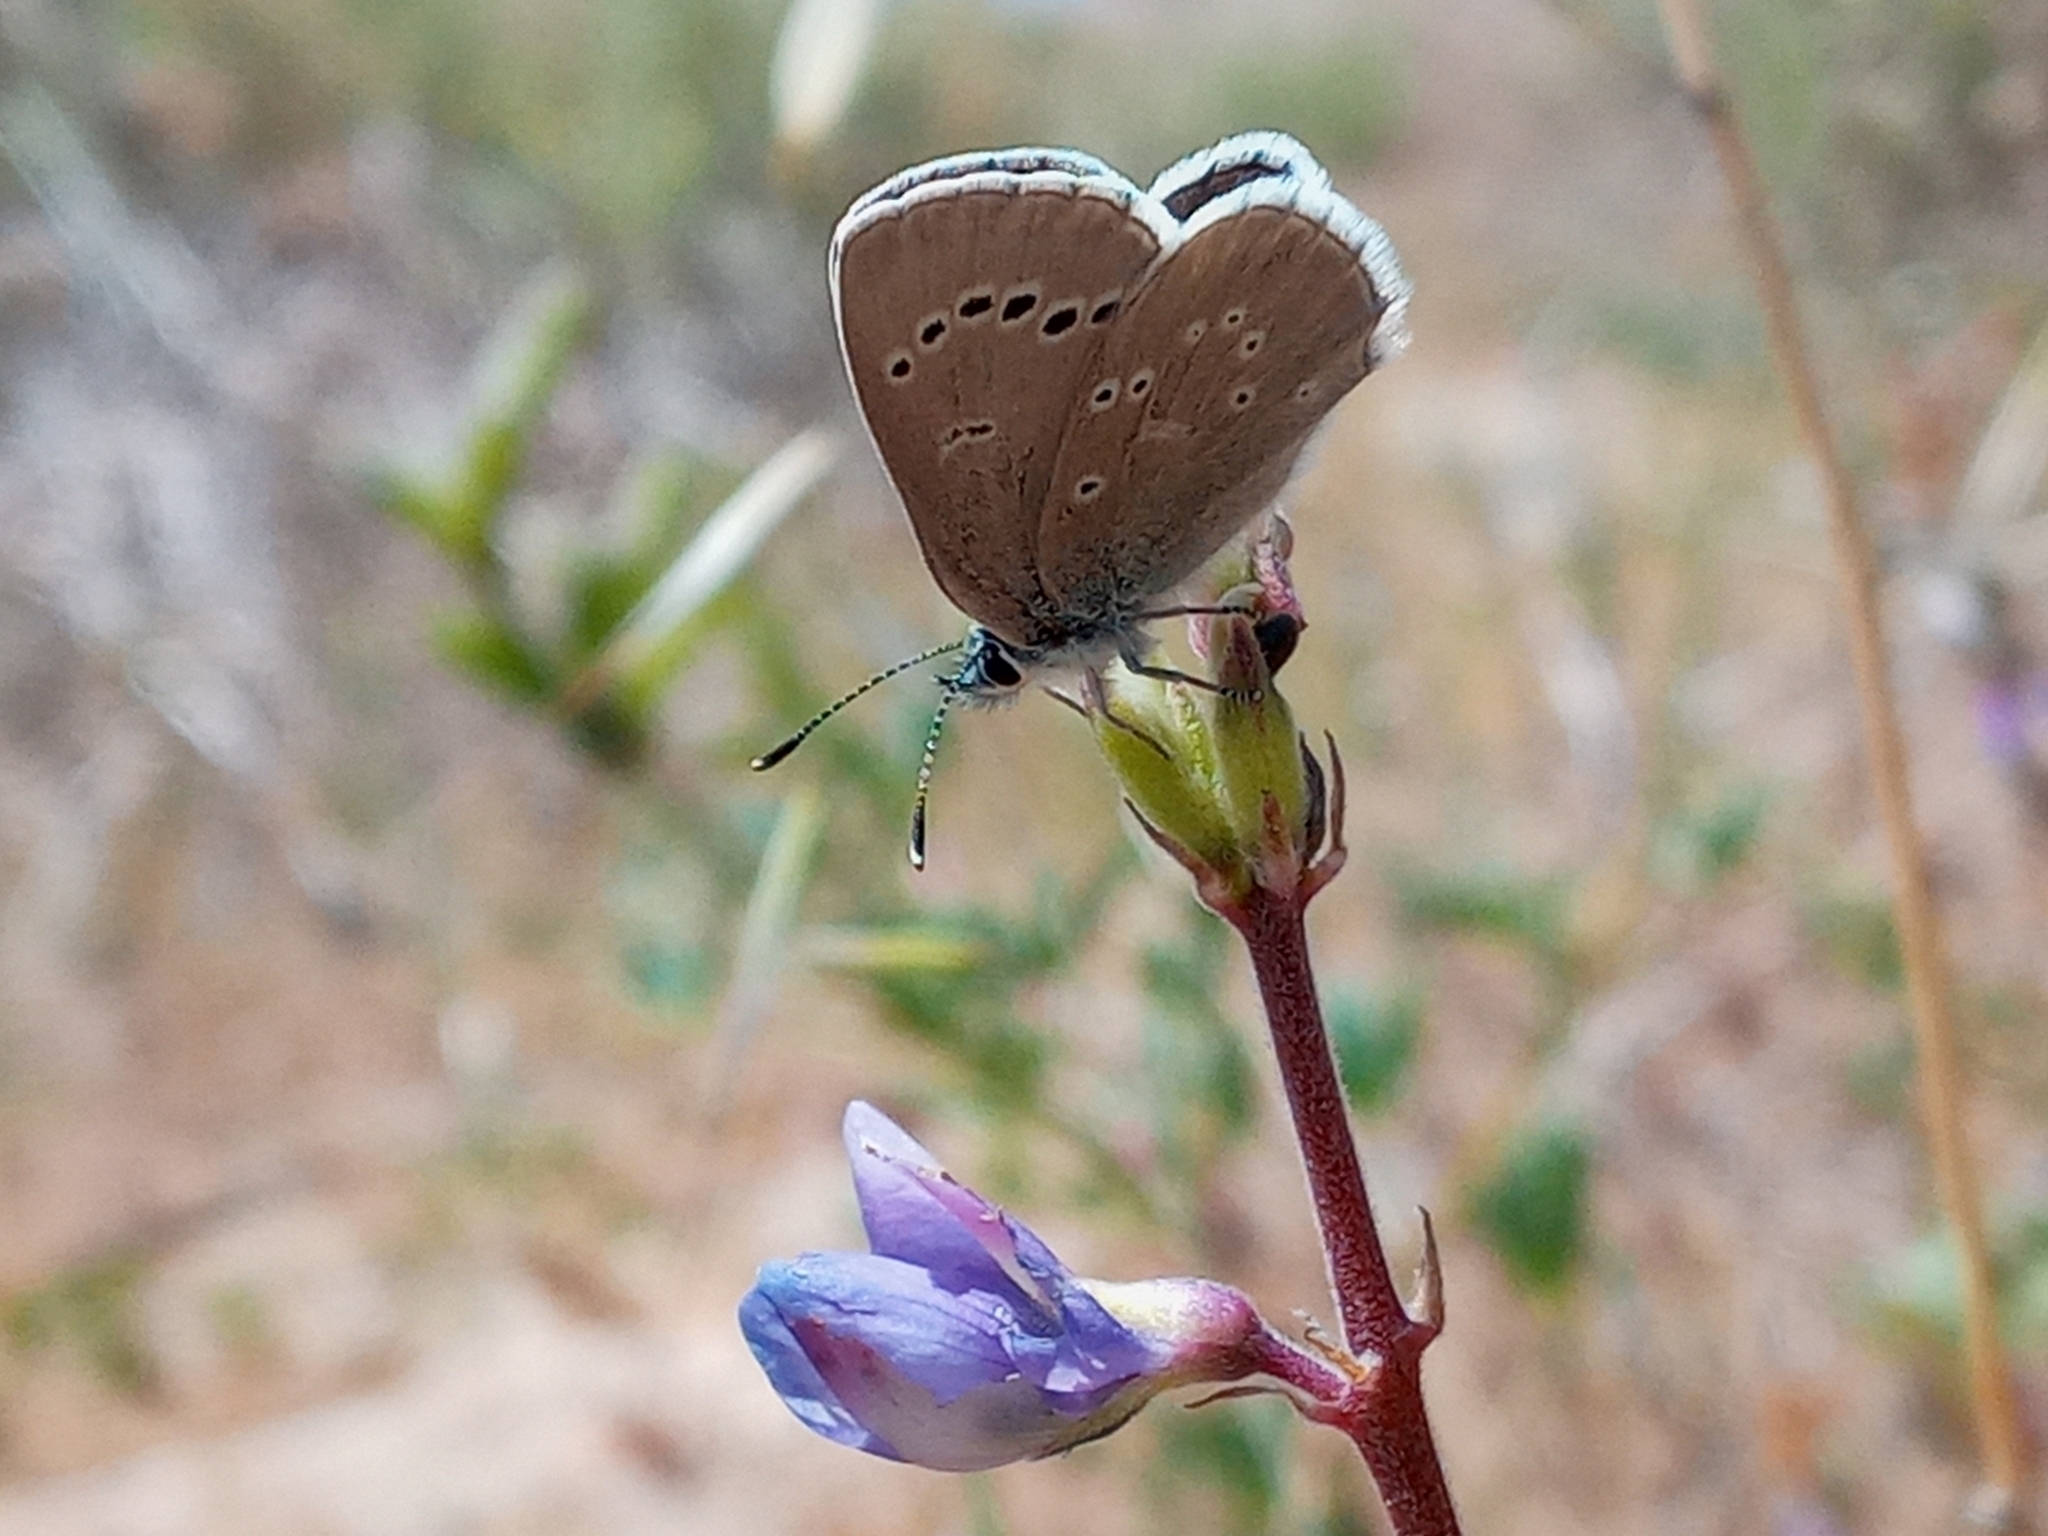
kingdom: Animalia
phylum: Arthropoda
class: Insecta
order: Lepidoptera
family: Lycaenidae
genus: Glaucopsyche
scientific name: Glaucopsyche lygdamus
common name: Silvery blue
